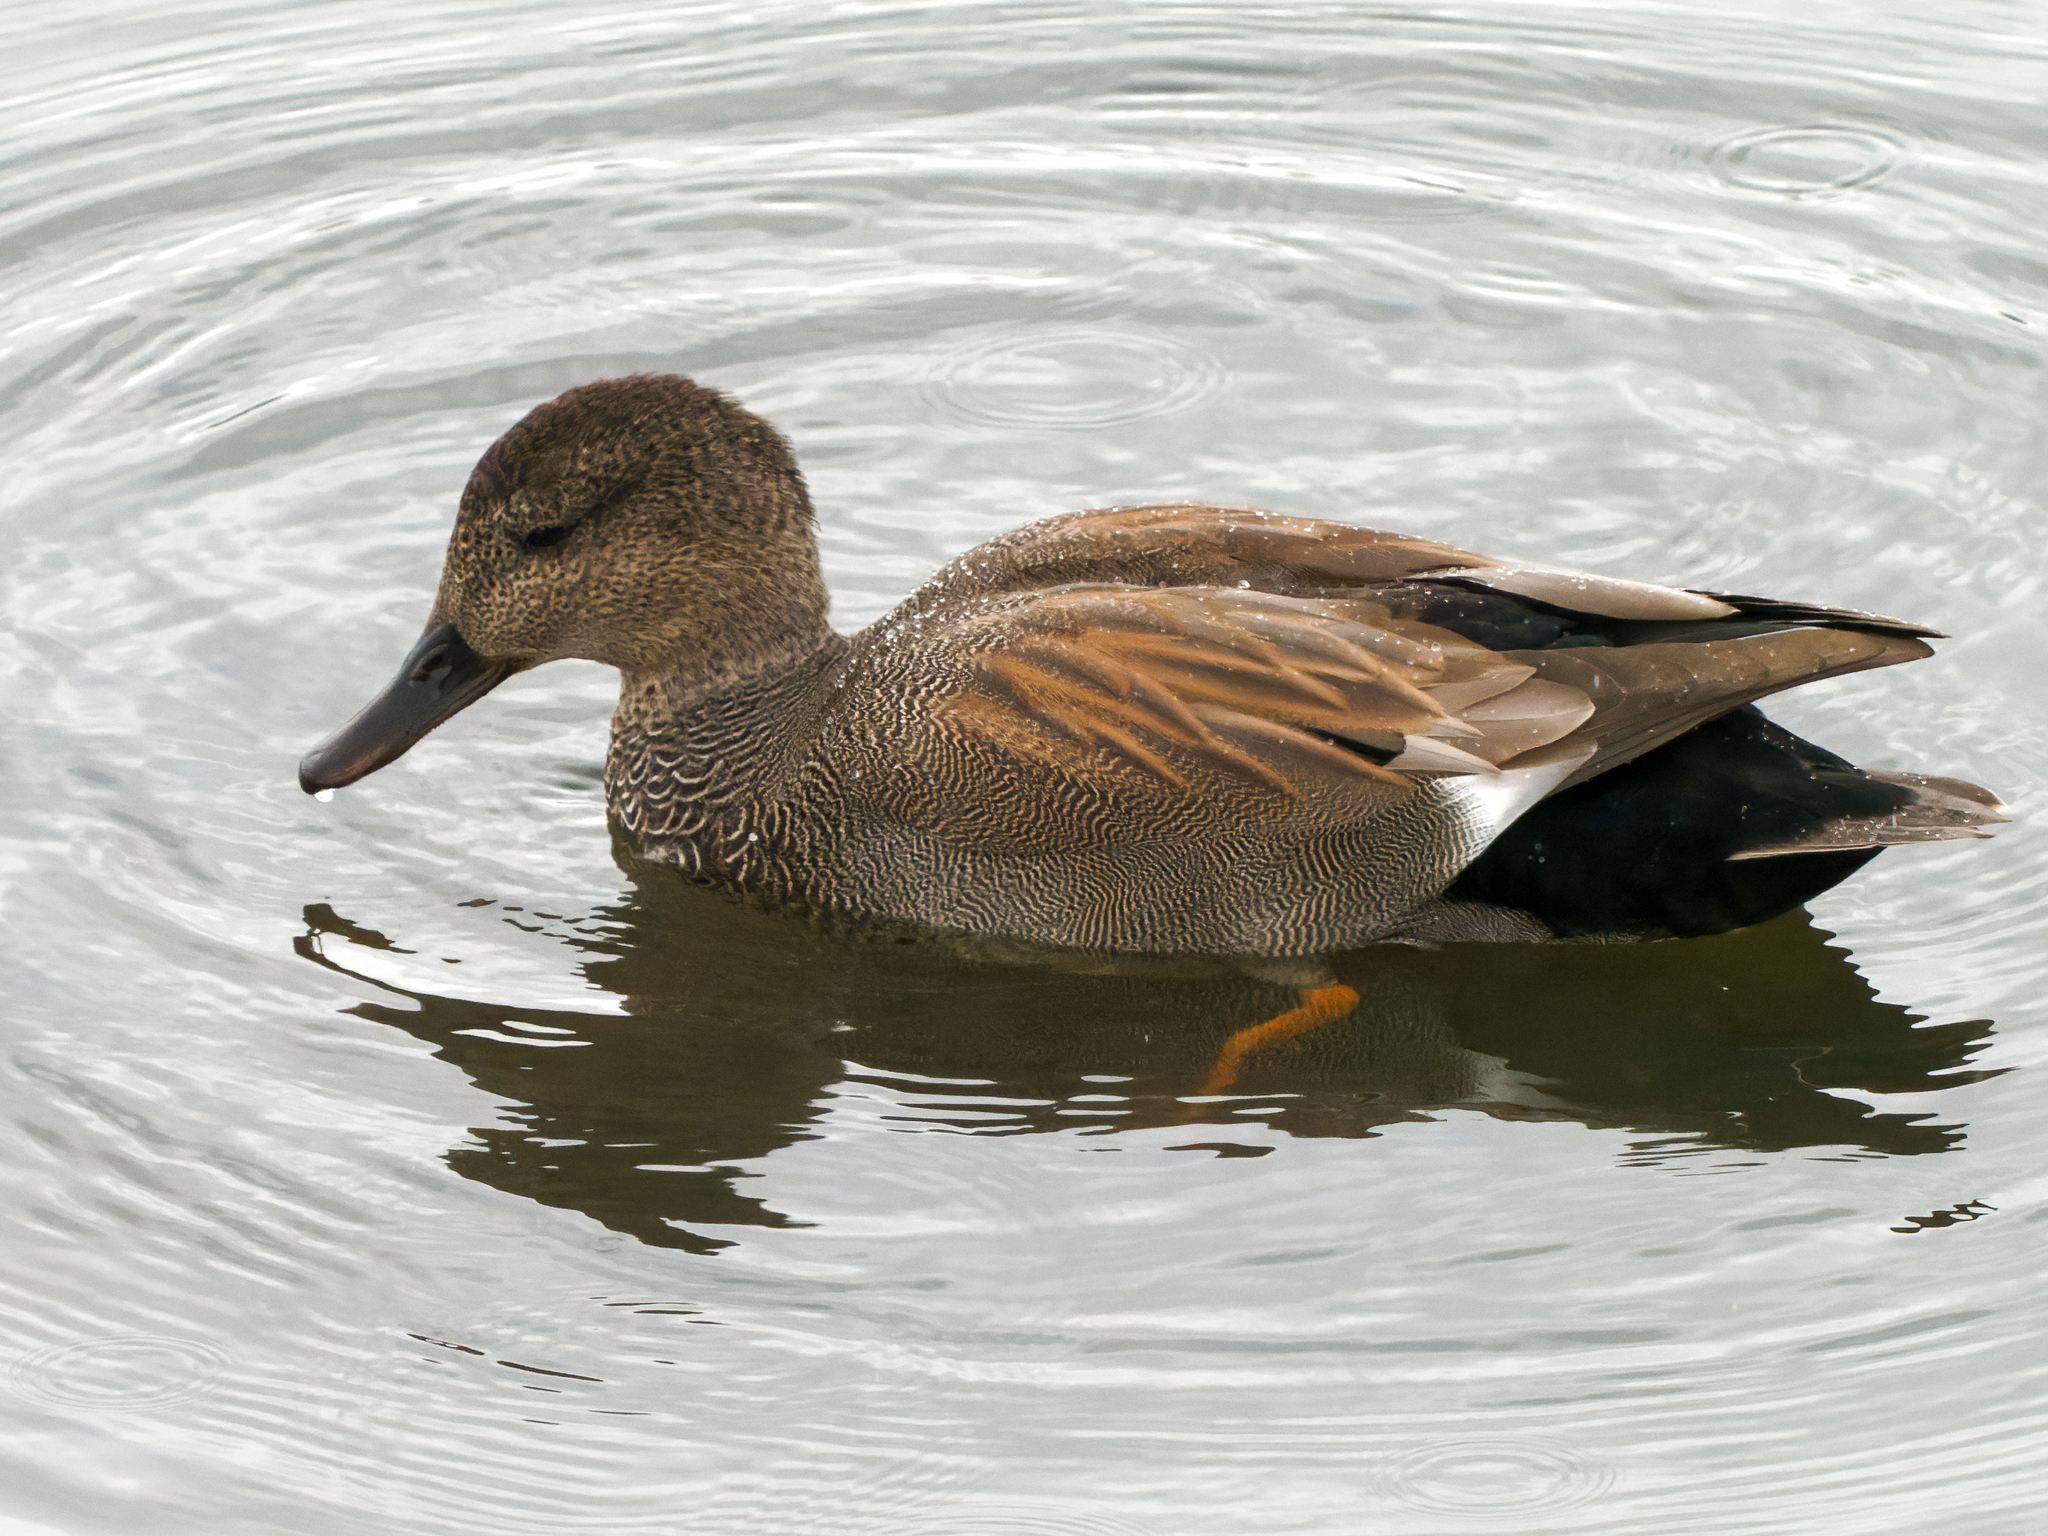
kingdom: Animalia
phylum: Chordata
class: Aves
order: Anseriformes
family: Anatidae
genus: Mareca
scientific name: Mareca strepera
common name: Gadwall
